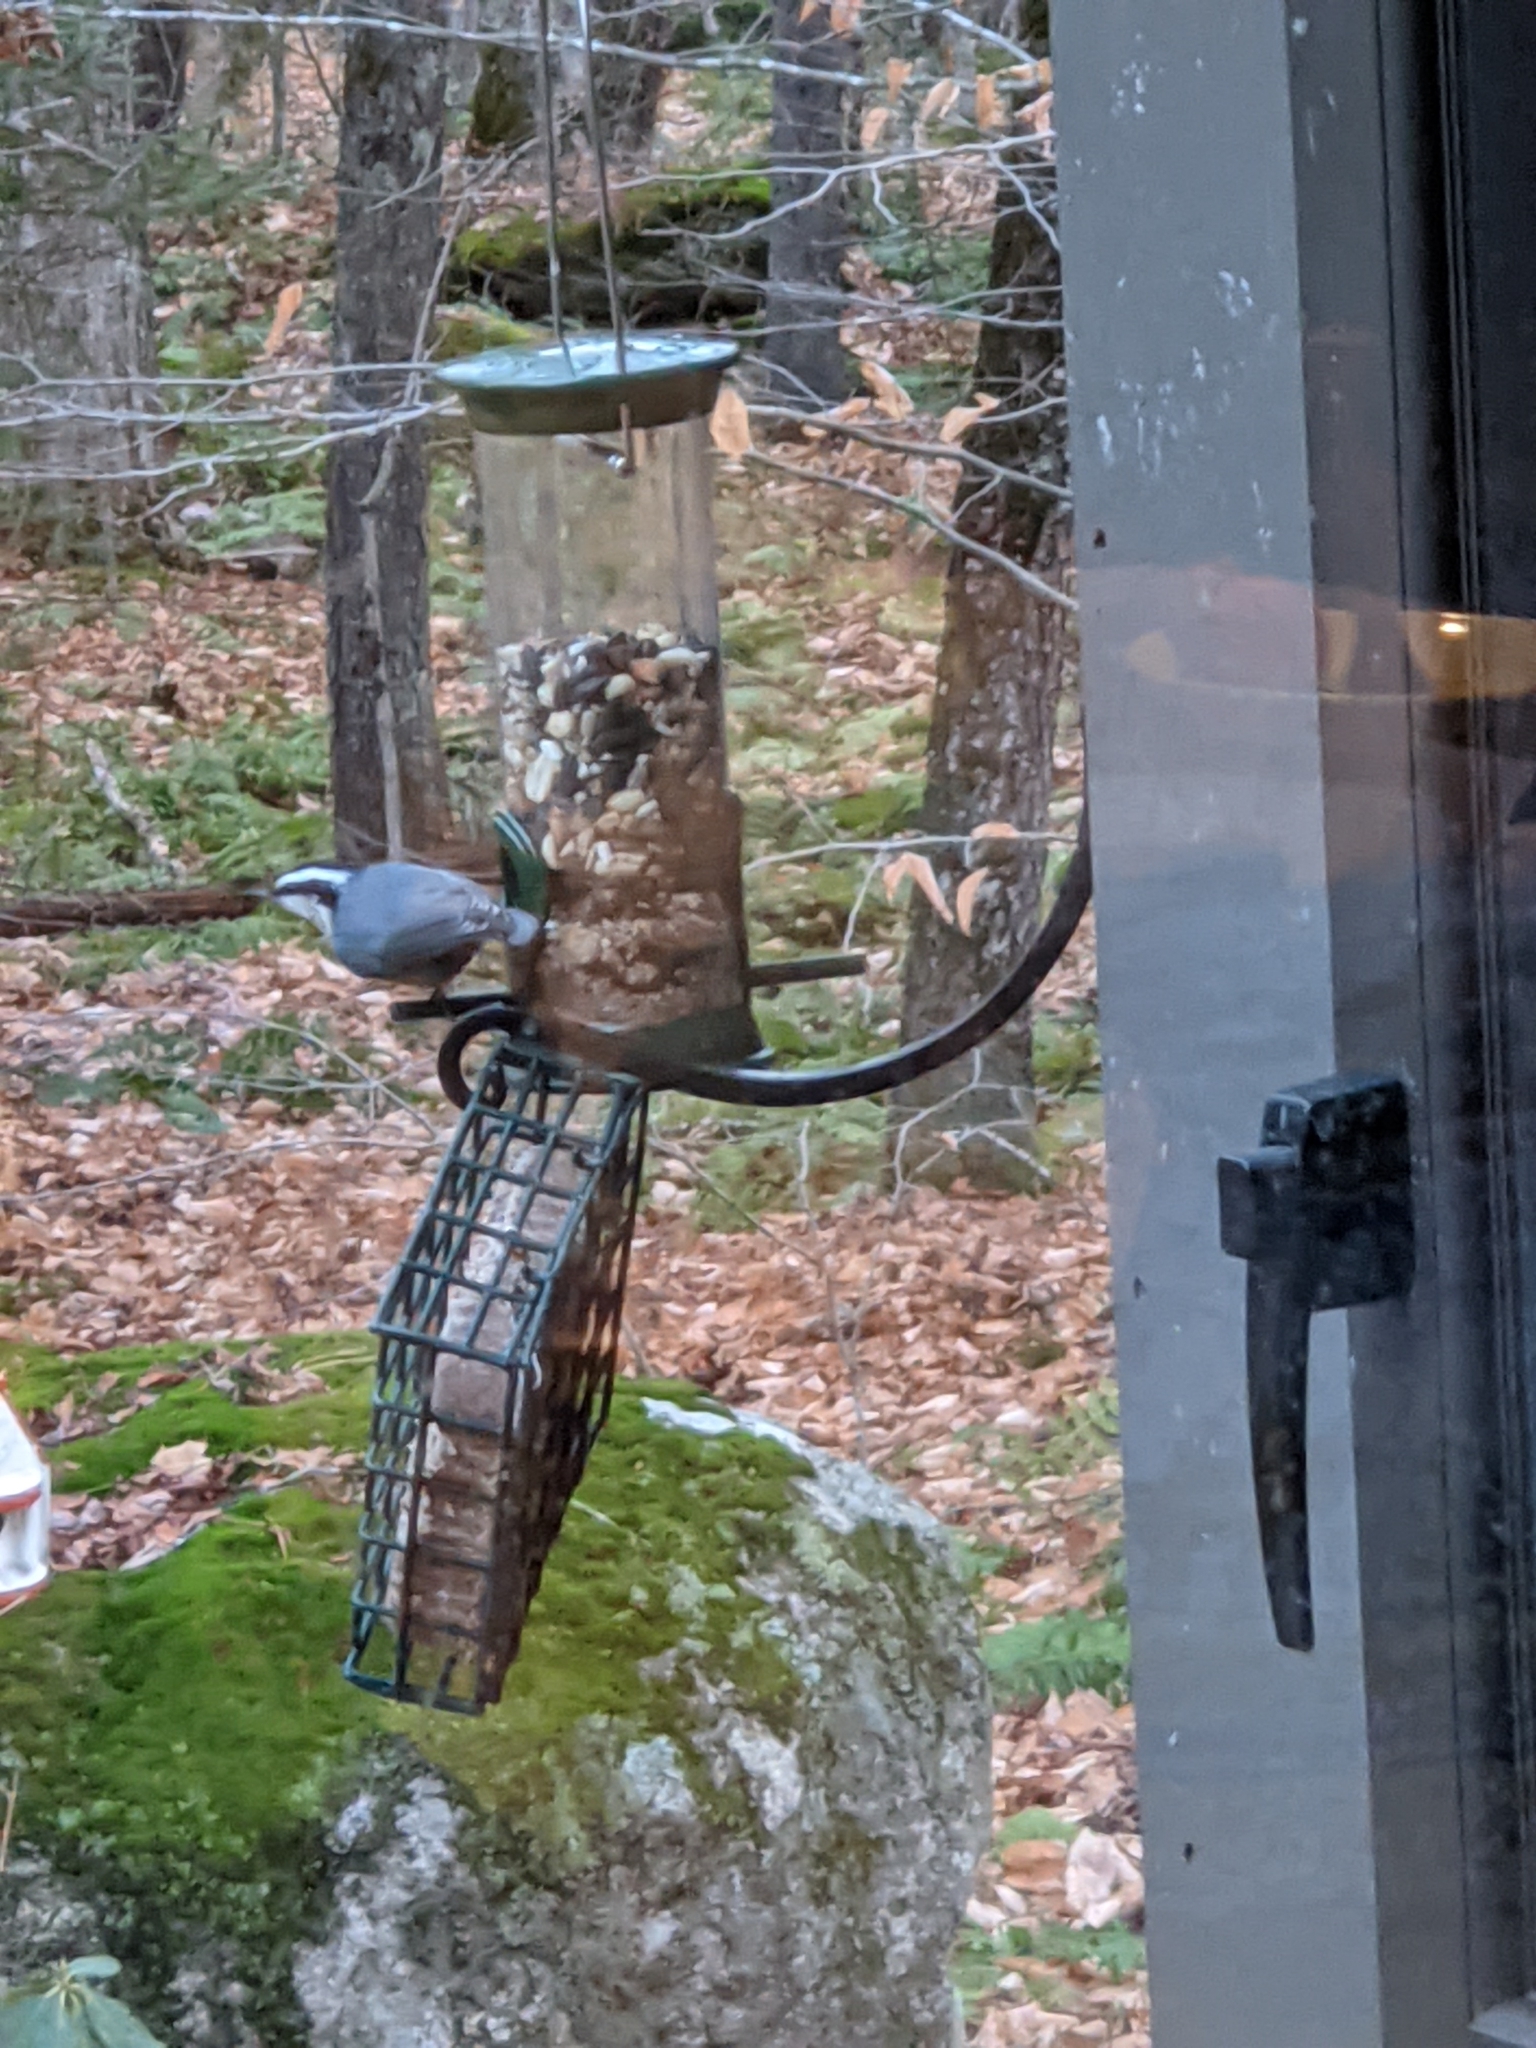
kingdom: Animalia
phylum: Chordata
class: Aves
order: Passeriformes
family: Sittidae
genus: Sitta
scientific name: Sitta canadensis
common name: Red-breasted nuthatch
